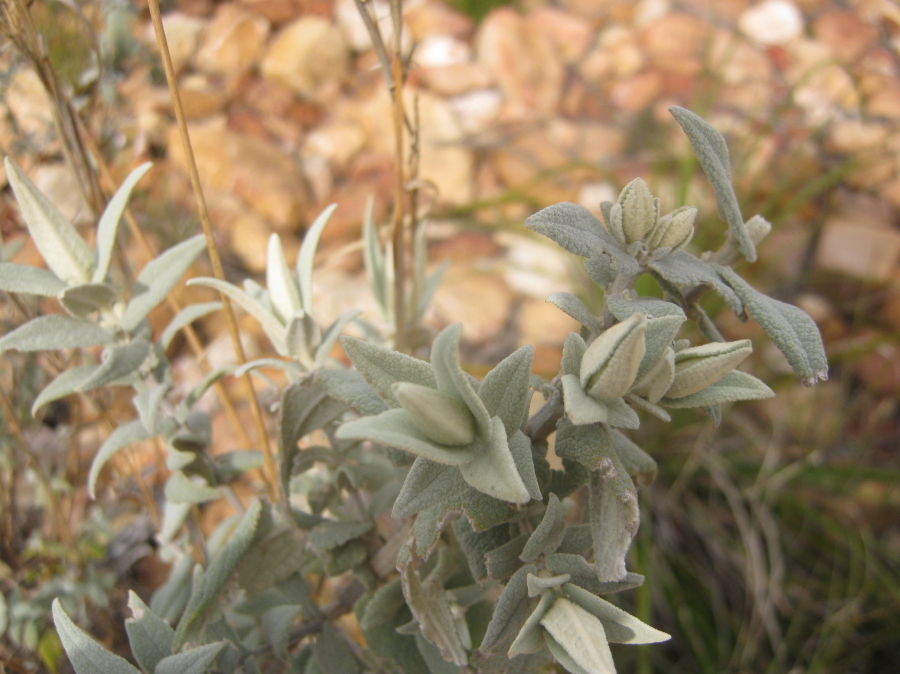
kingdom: Plantae
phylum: Tracheophyta
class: Magnoliopsida
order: Lamiales
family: Scrophulariaceae
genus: Buddleja
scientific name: Buddleja salviifolia
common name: Sagewood
